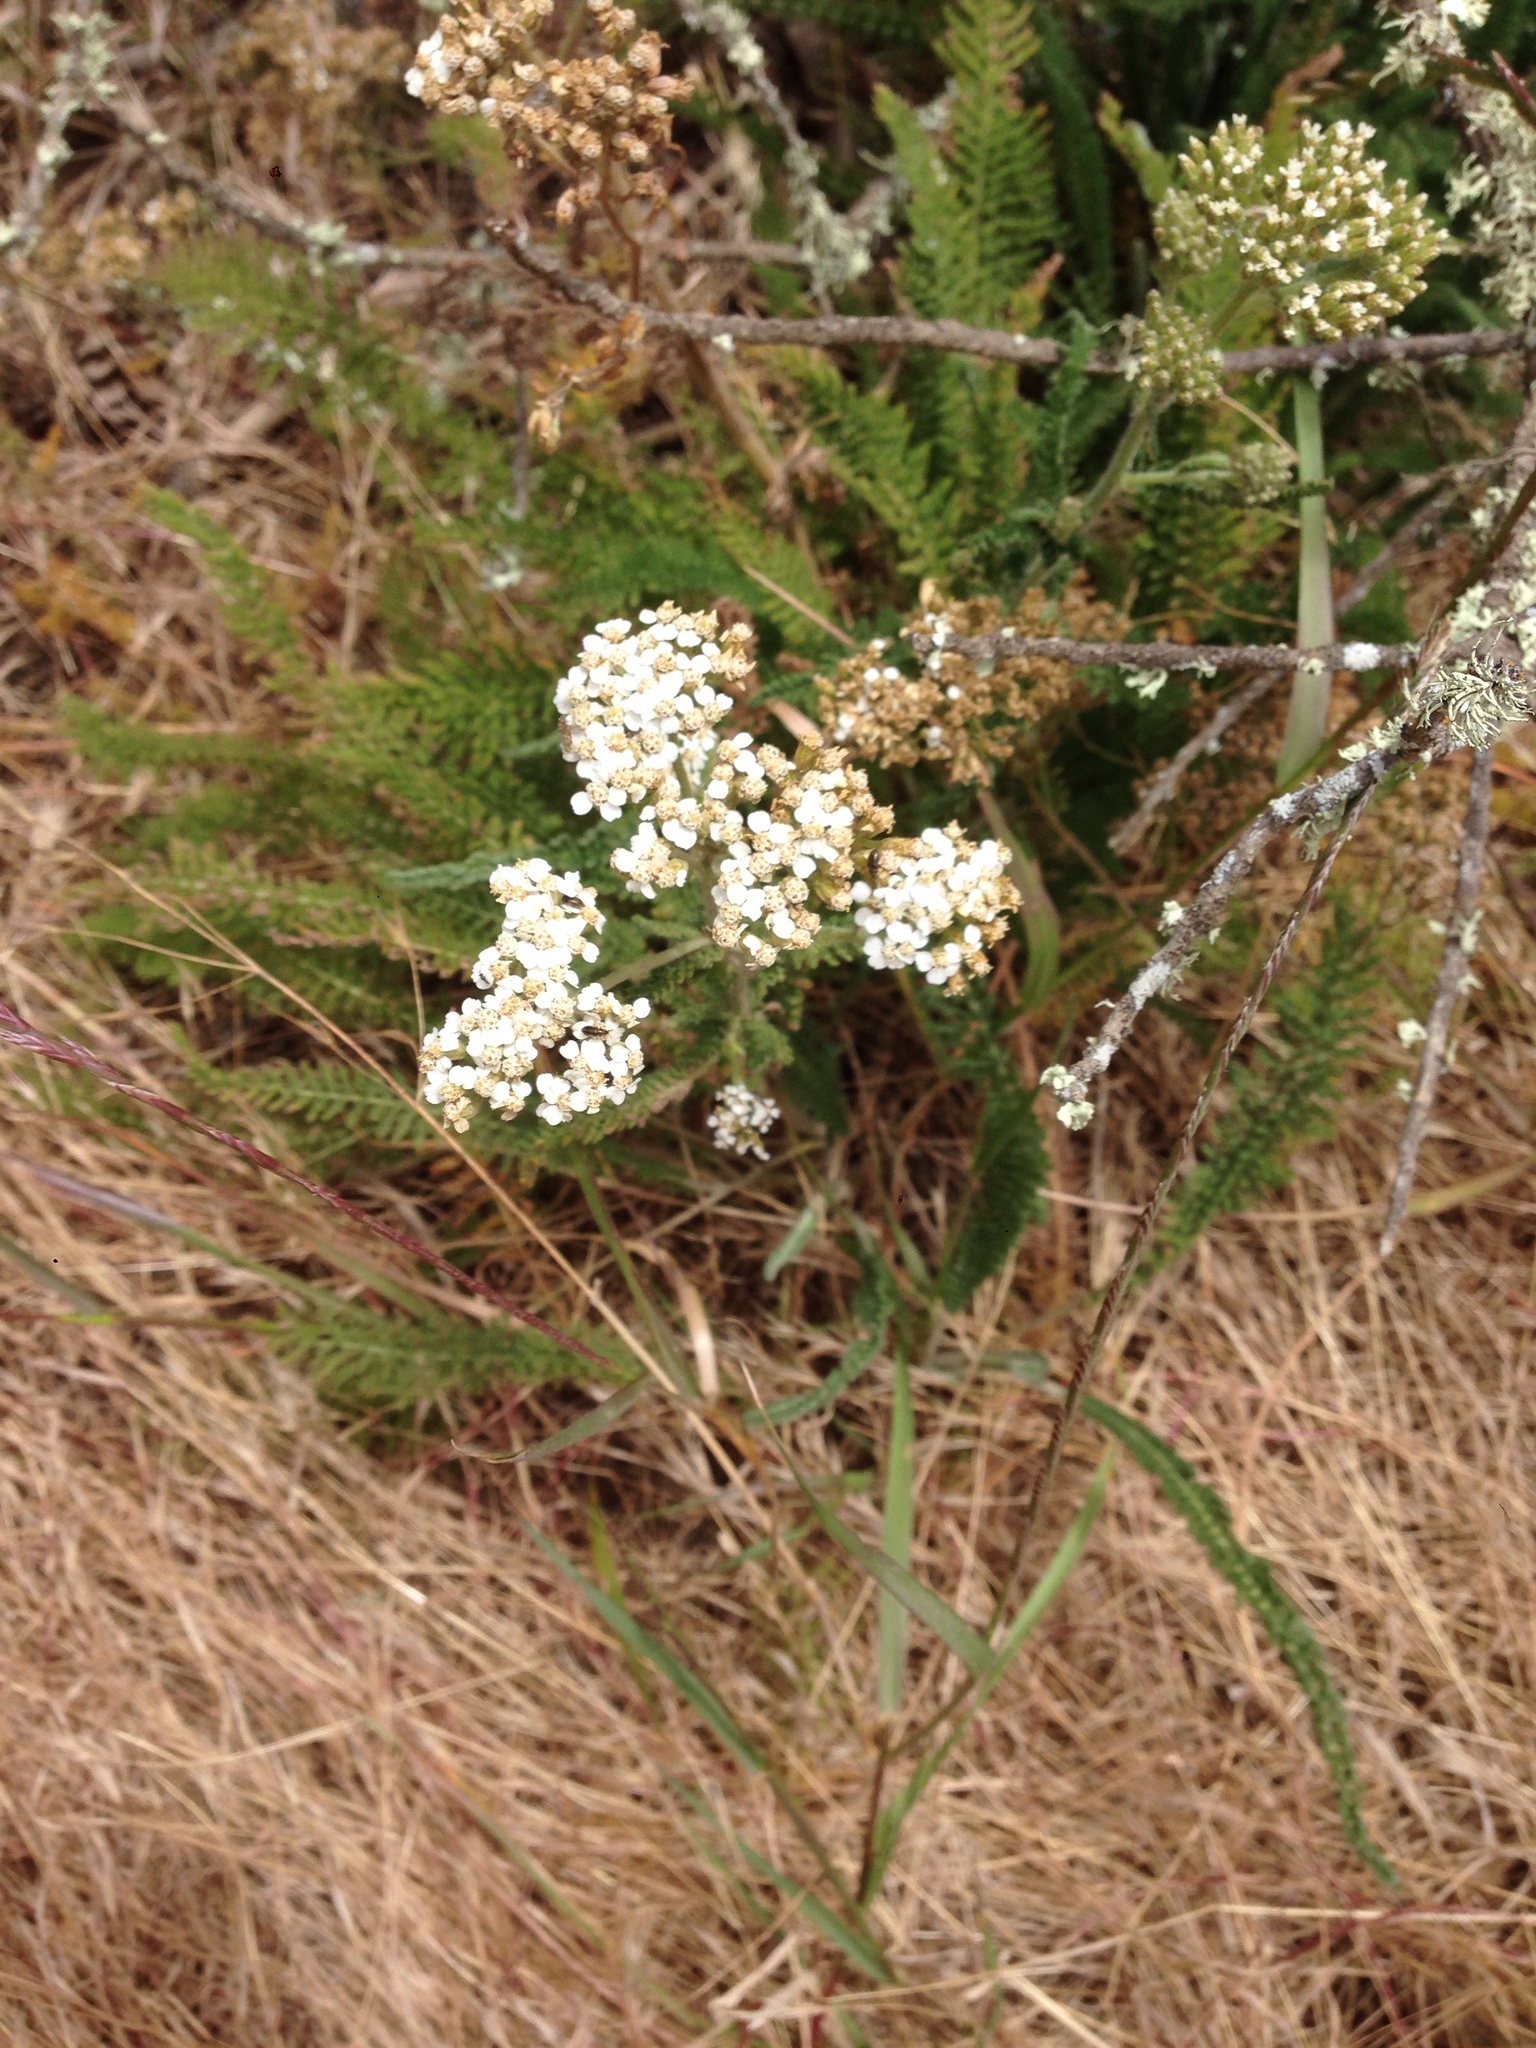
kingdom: Plantae
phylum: Tracheophyta
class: Magnoliopsida
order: Asterales
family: Asteraceae
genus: Achillea
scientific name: Achillea millefolium
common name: Yarrow
